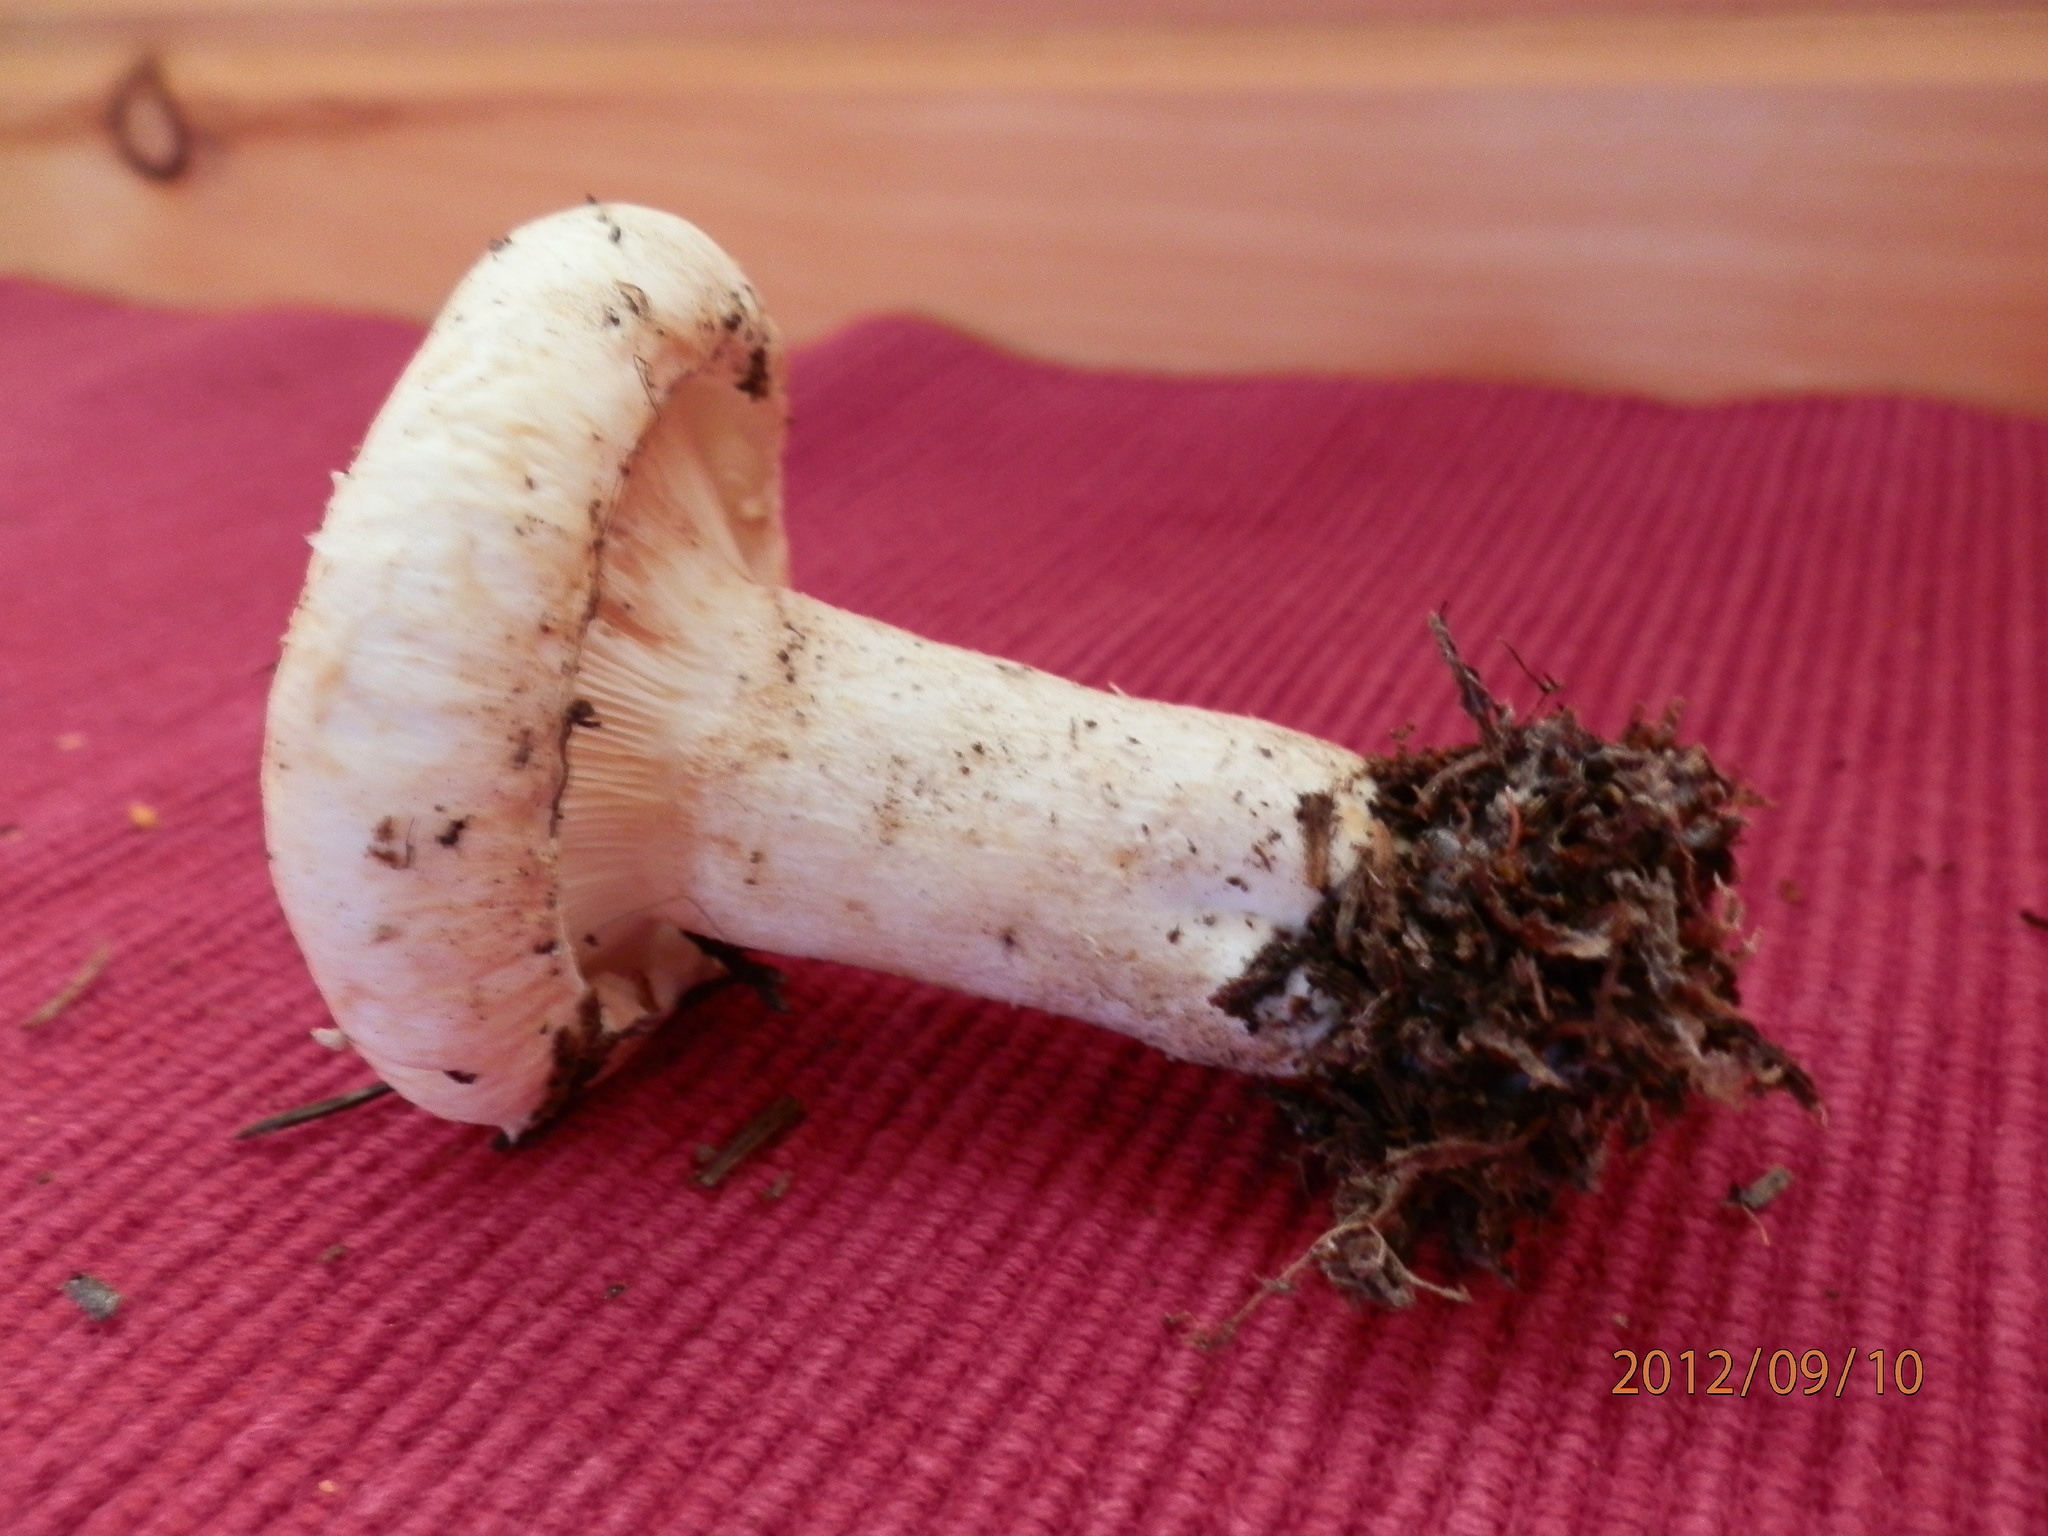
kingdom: Fungi
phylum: Basidiomycota
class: Agaricomycetes
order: Russulales
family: Russulaceae
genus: Lactifluus
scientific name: Lactifluus
